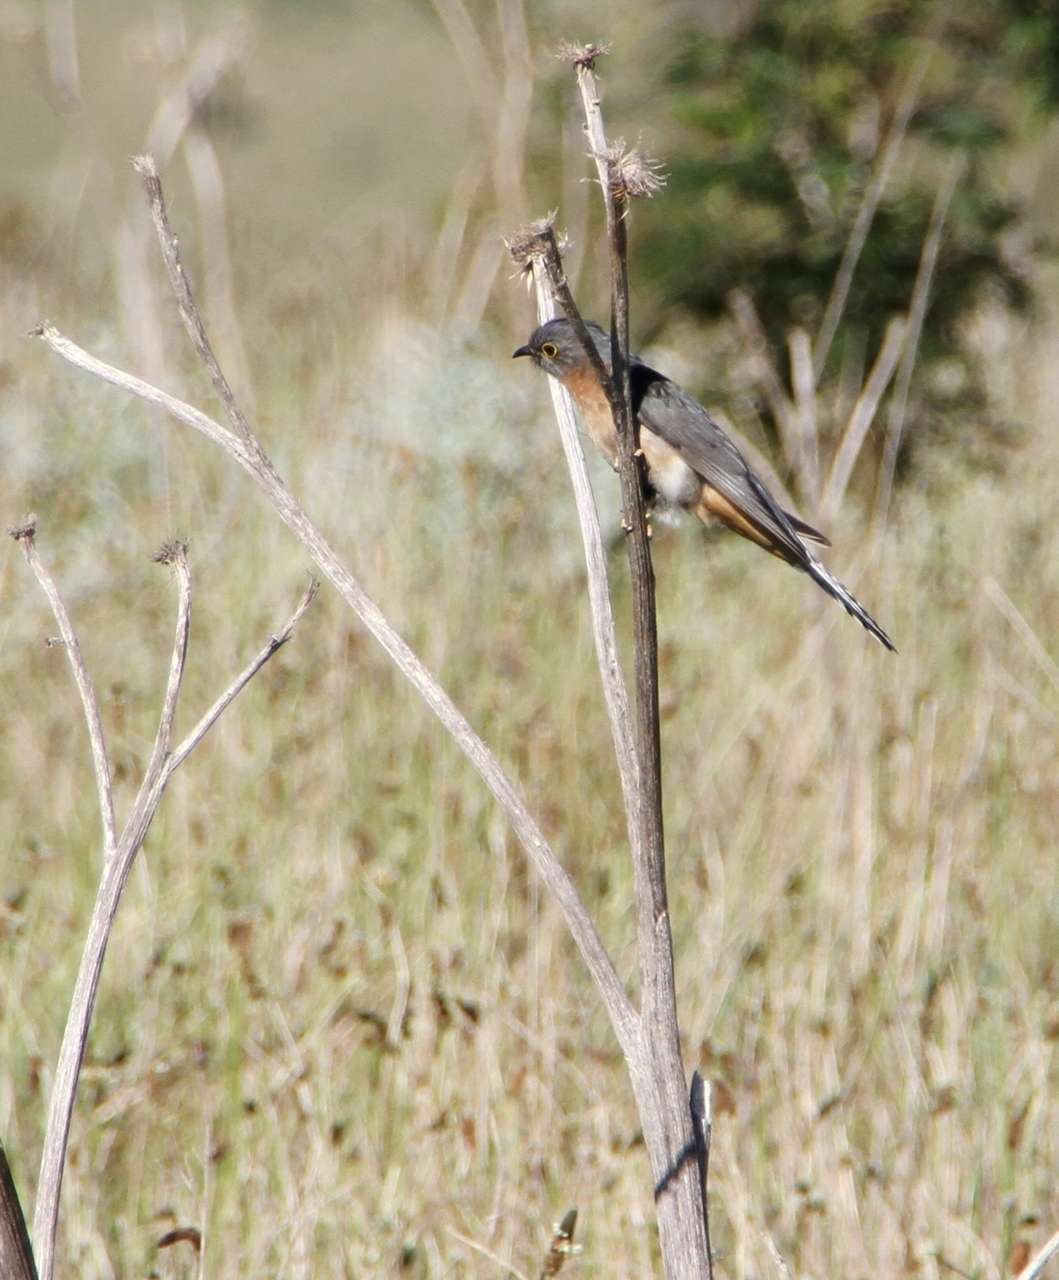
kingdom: Animalia
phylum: Chordata
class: Aves
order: Cuculiformes
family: Cuculidae
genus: Cacomantis
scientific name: Cacomantis flabelliformis
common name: Fan-tailed cuckoo
